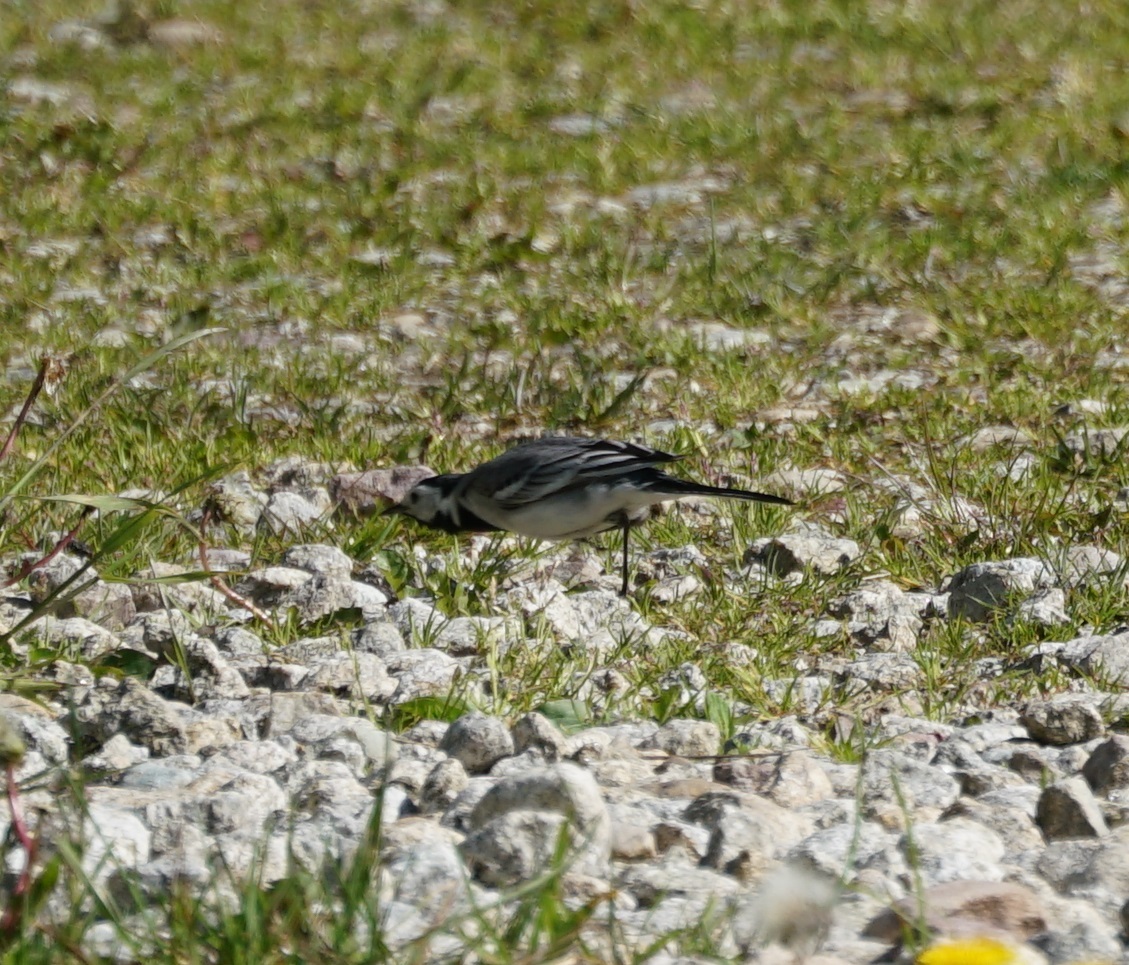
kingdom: Animalia
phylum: Chordata
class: Aves
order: Passeriformes
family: Motacillidae
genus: Motacilla
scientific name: Motacilla alba
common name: White wagtail
